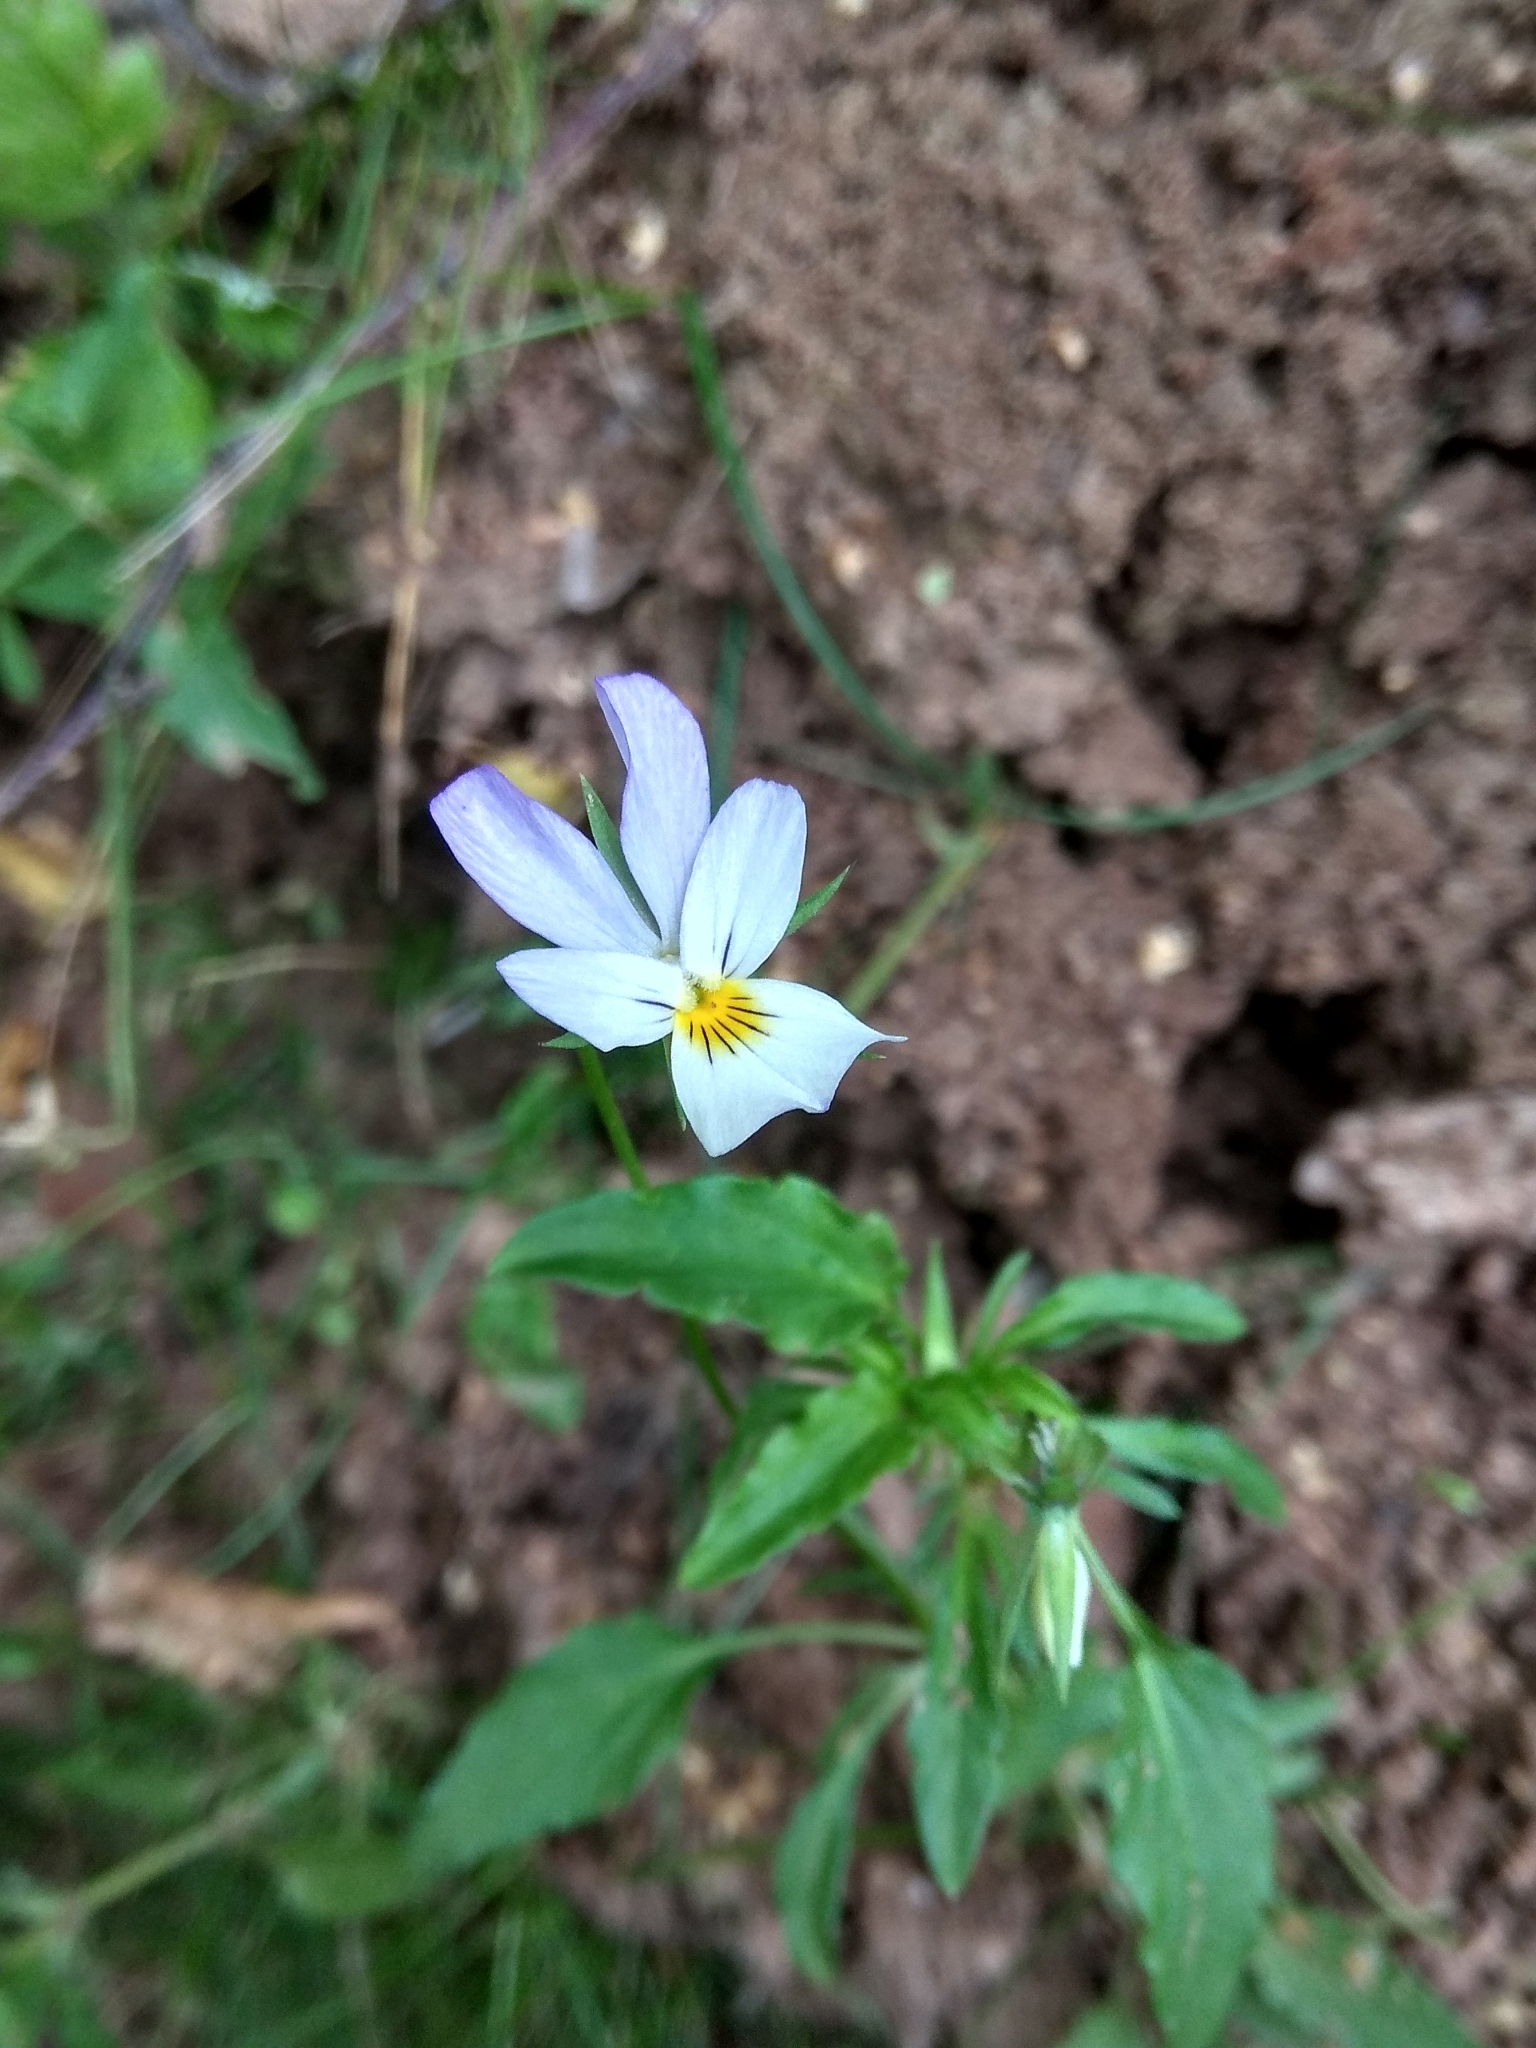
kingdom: Plantae
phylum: Tracheophyta
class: Magnoliopsida
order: Malpighiales
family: Violaceae
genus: Viola
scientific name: Viola tricolor
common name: Pansy
